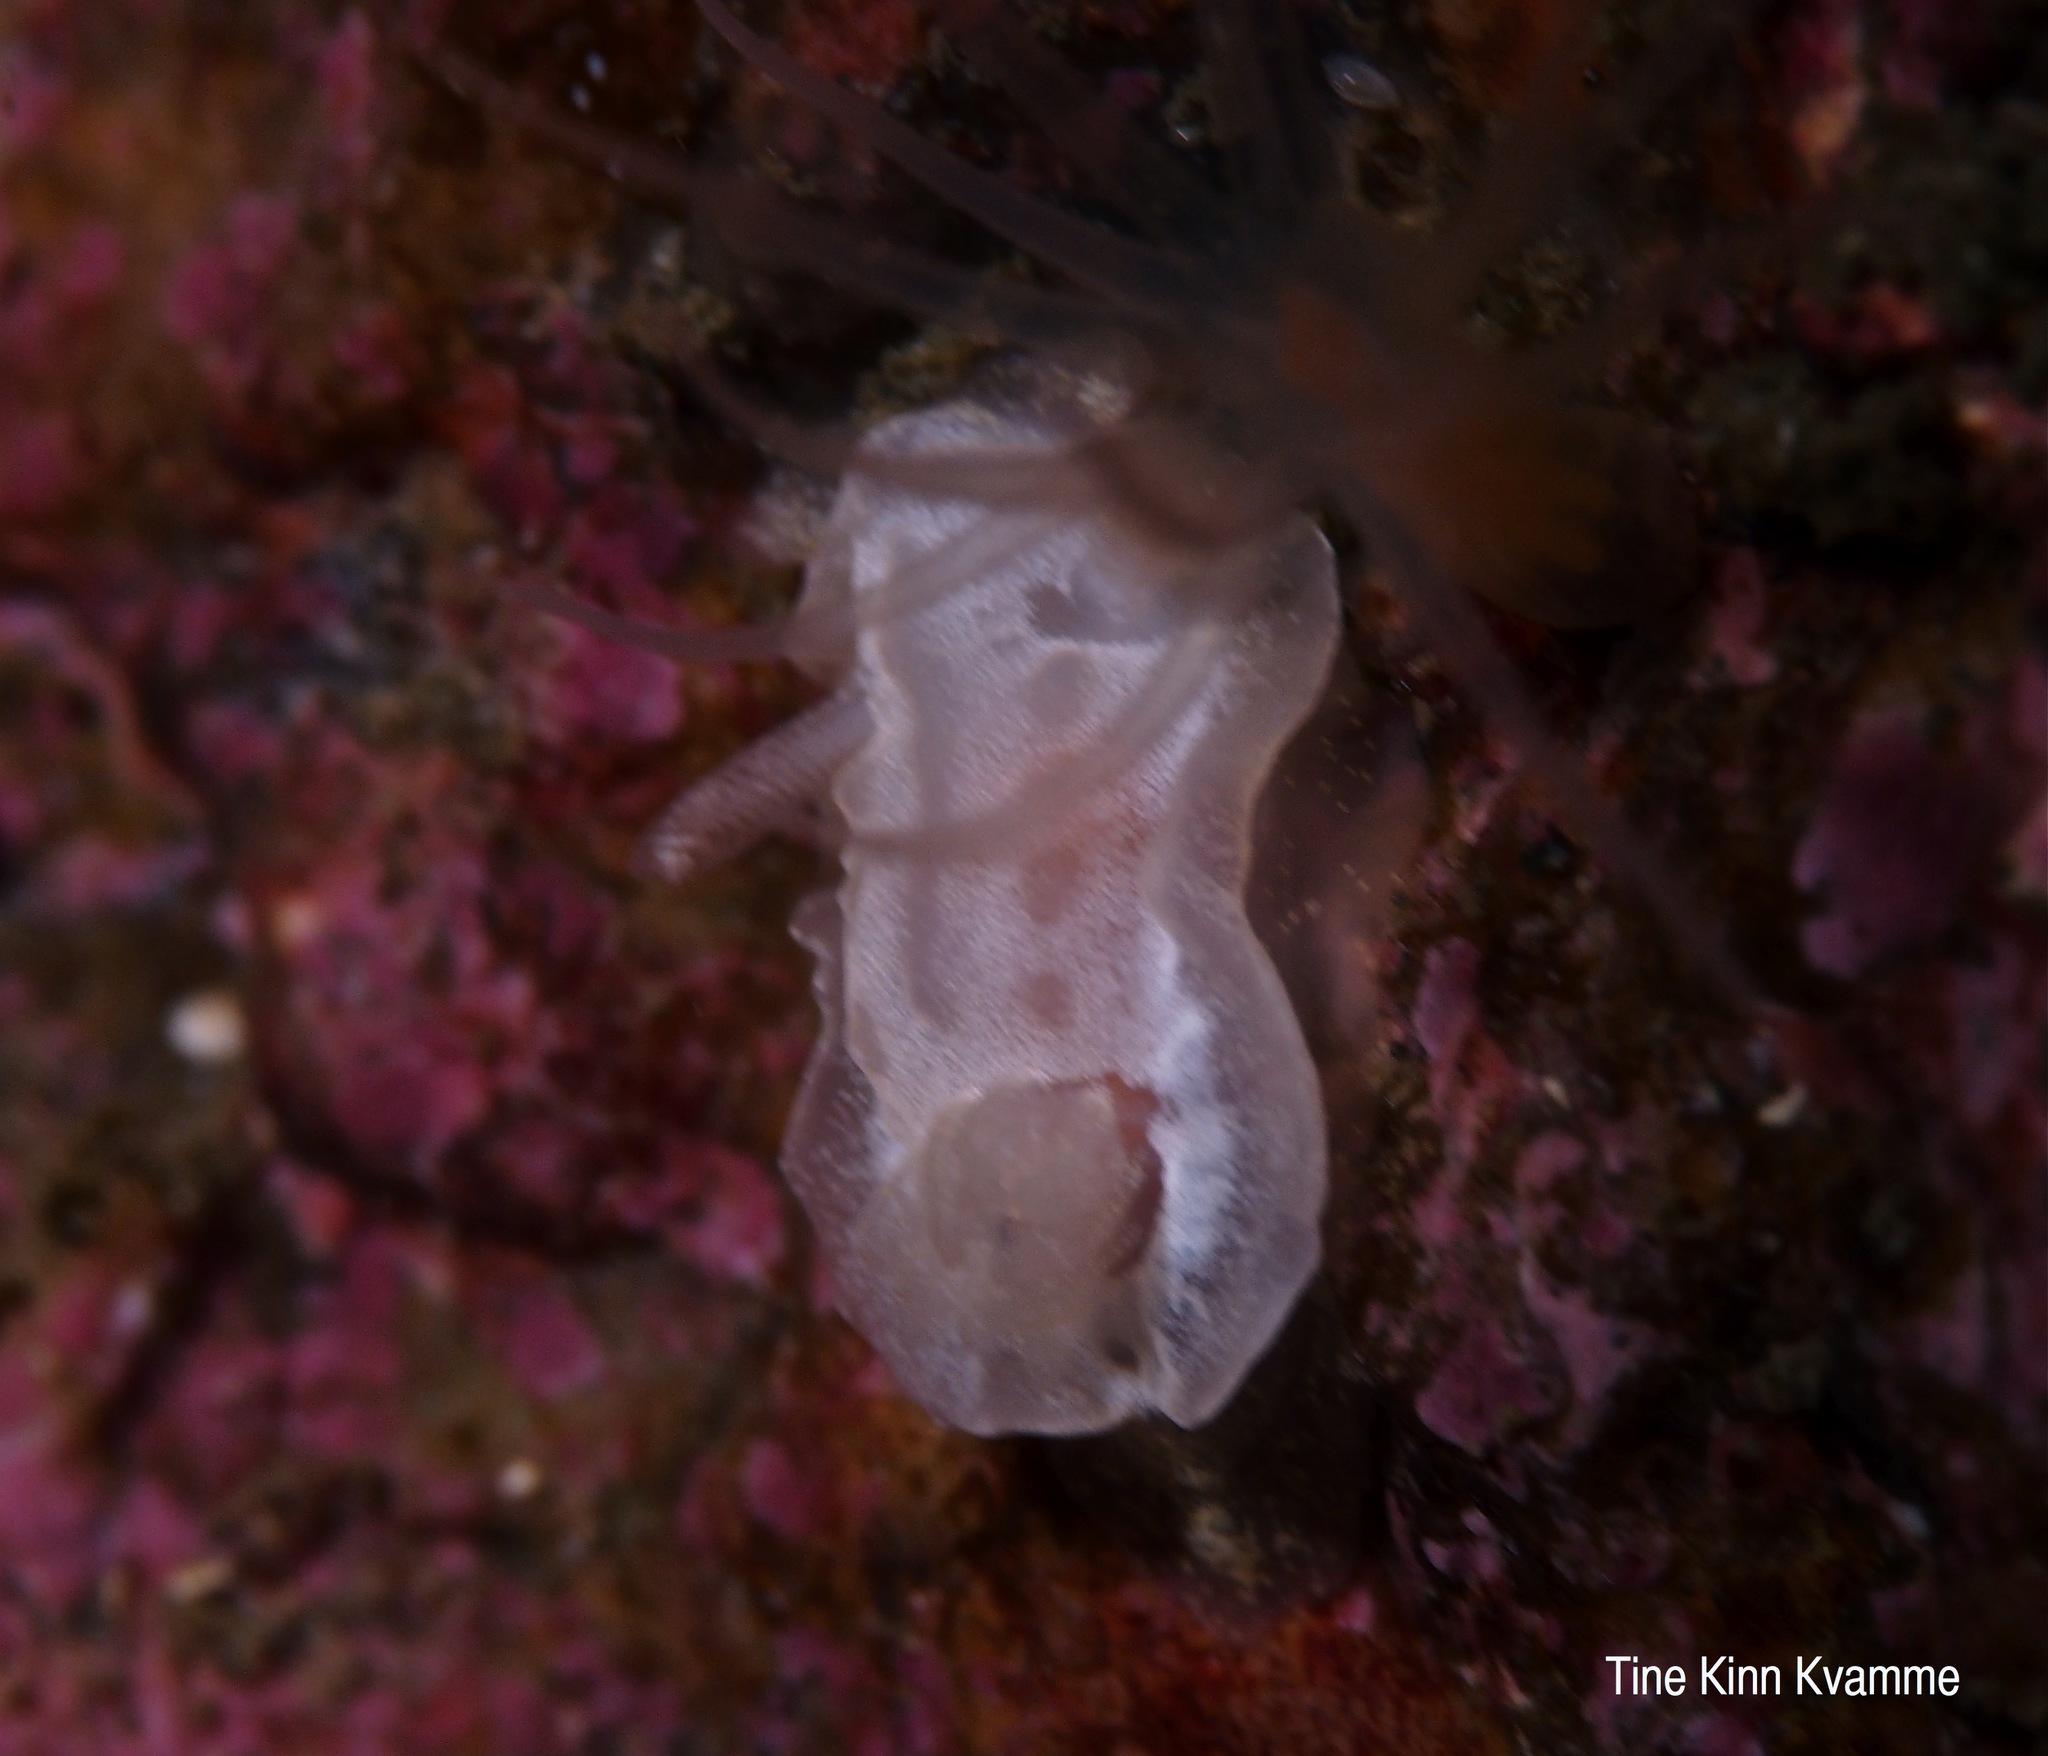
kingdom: Animalia
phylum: Mollusca
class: Gastropoda
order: Nudibranchia
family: Goniodorididae
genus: Okenia
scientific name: Okenia
